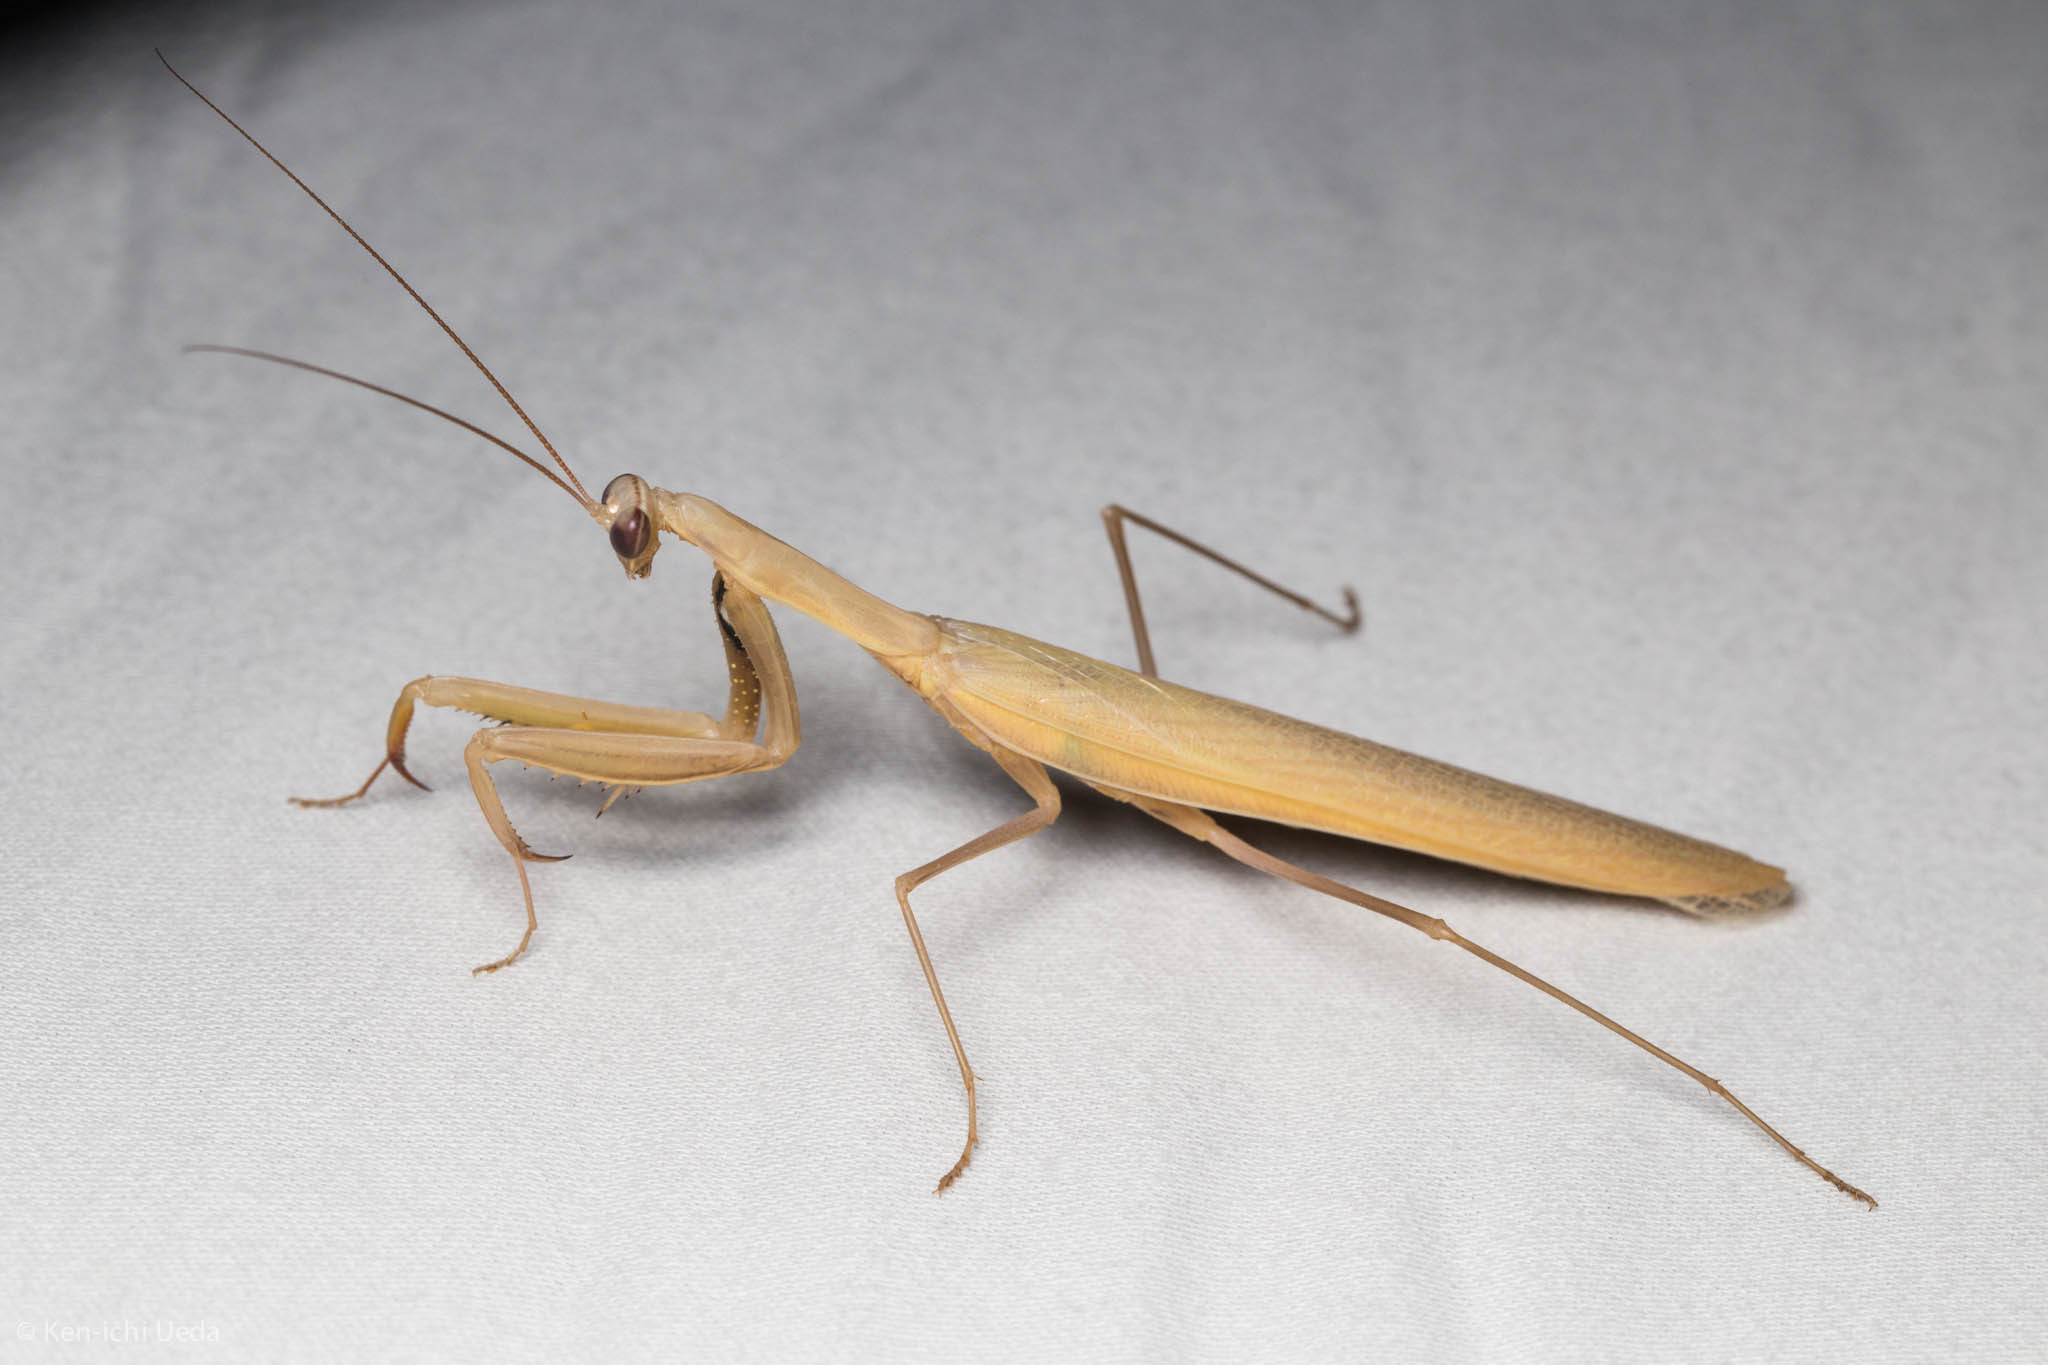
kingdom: Animalia
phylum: Arthropoda
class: Insecta
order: Mantodea
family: Mantidae
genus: Mantis
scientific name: Mantis religiosa
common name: Praying mantis
